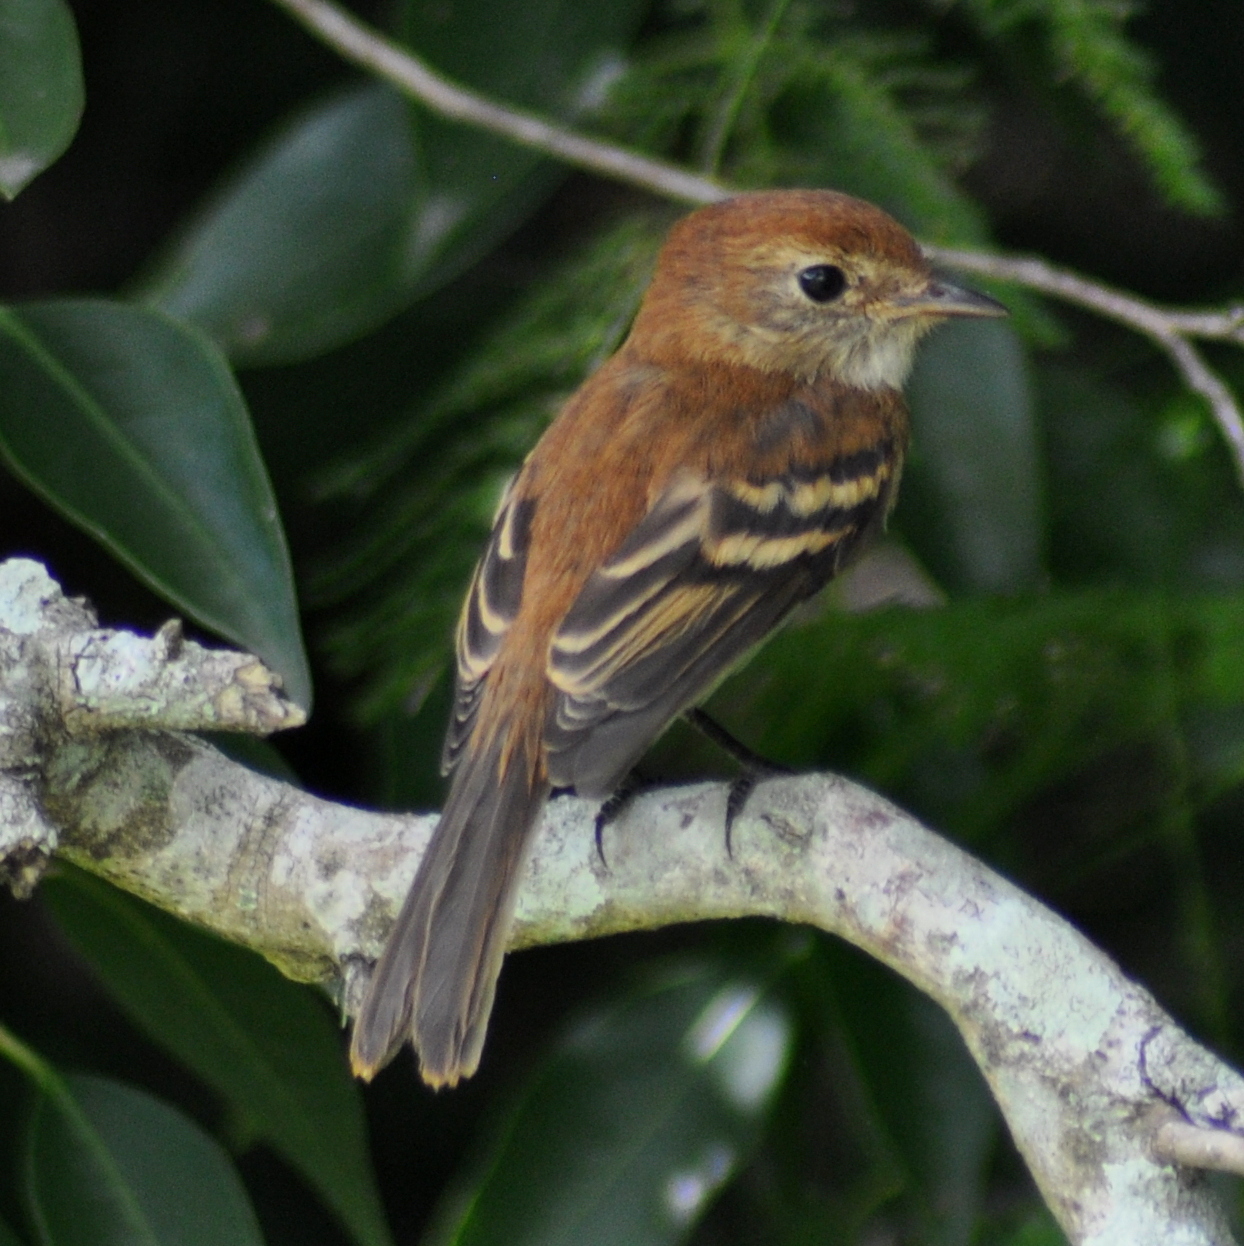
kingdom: Animalia
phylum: Chordata
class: Aves
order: Passeriformes
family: Tyrannidae
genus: Myiophobus
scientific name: Myiophobus fasciatus
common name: Bran-colored flycatcher
